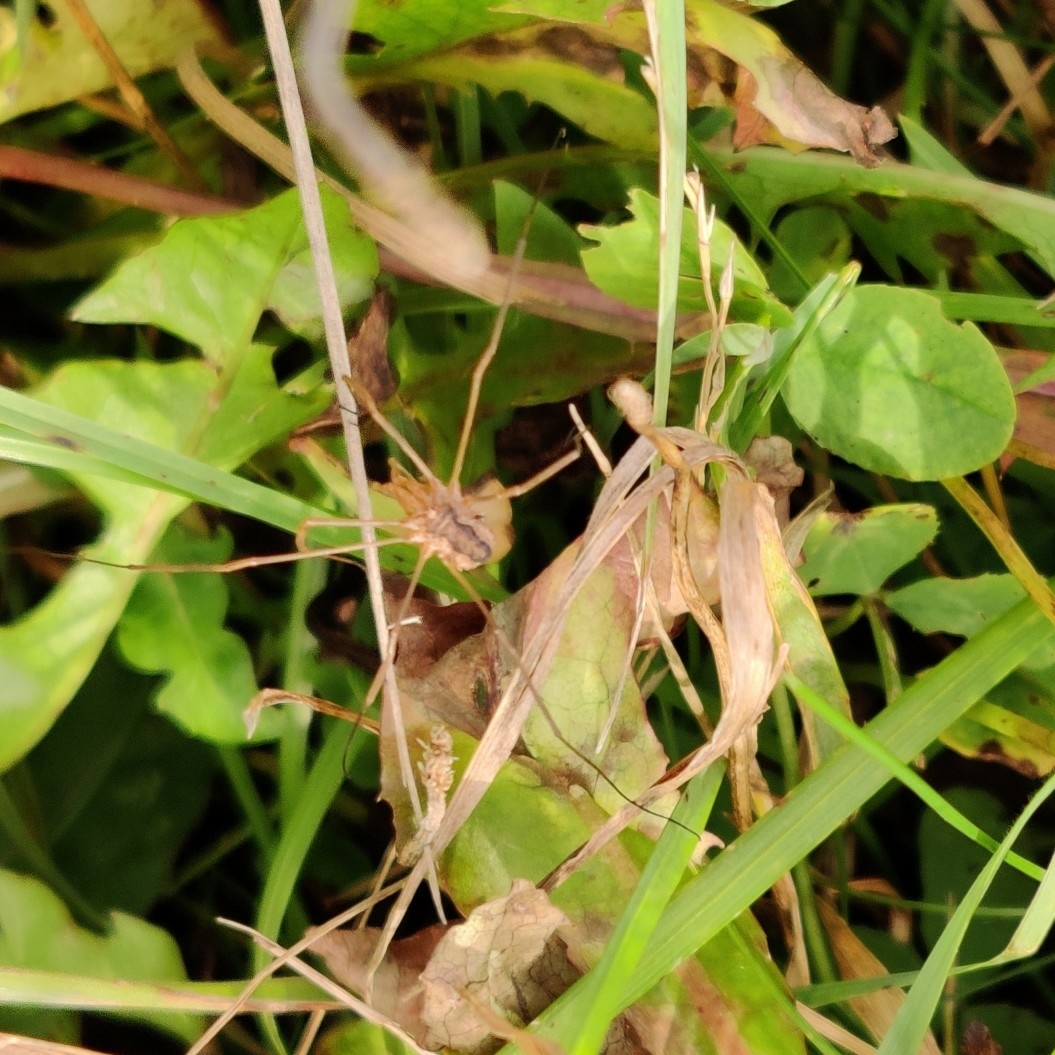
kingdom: Animalia
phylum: Arthropoda
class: Arachnida
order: Opiliones
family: Phalangiidae
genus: Phalangium
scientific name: Phalangium opilio
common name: Daddy longleg
